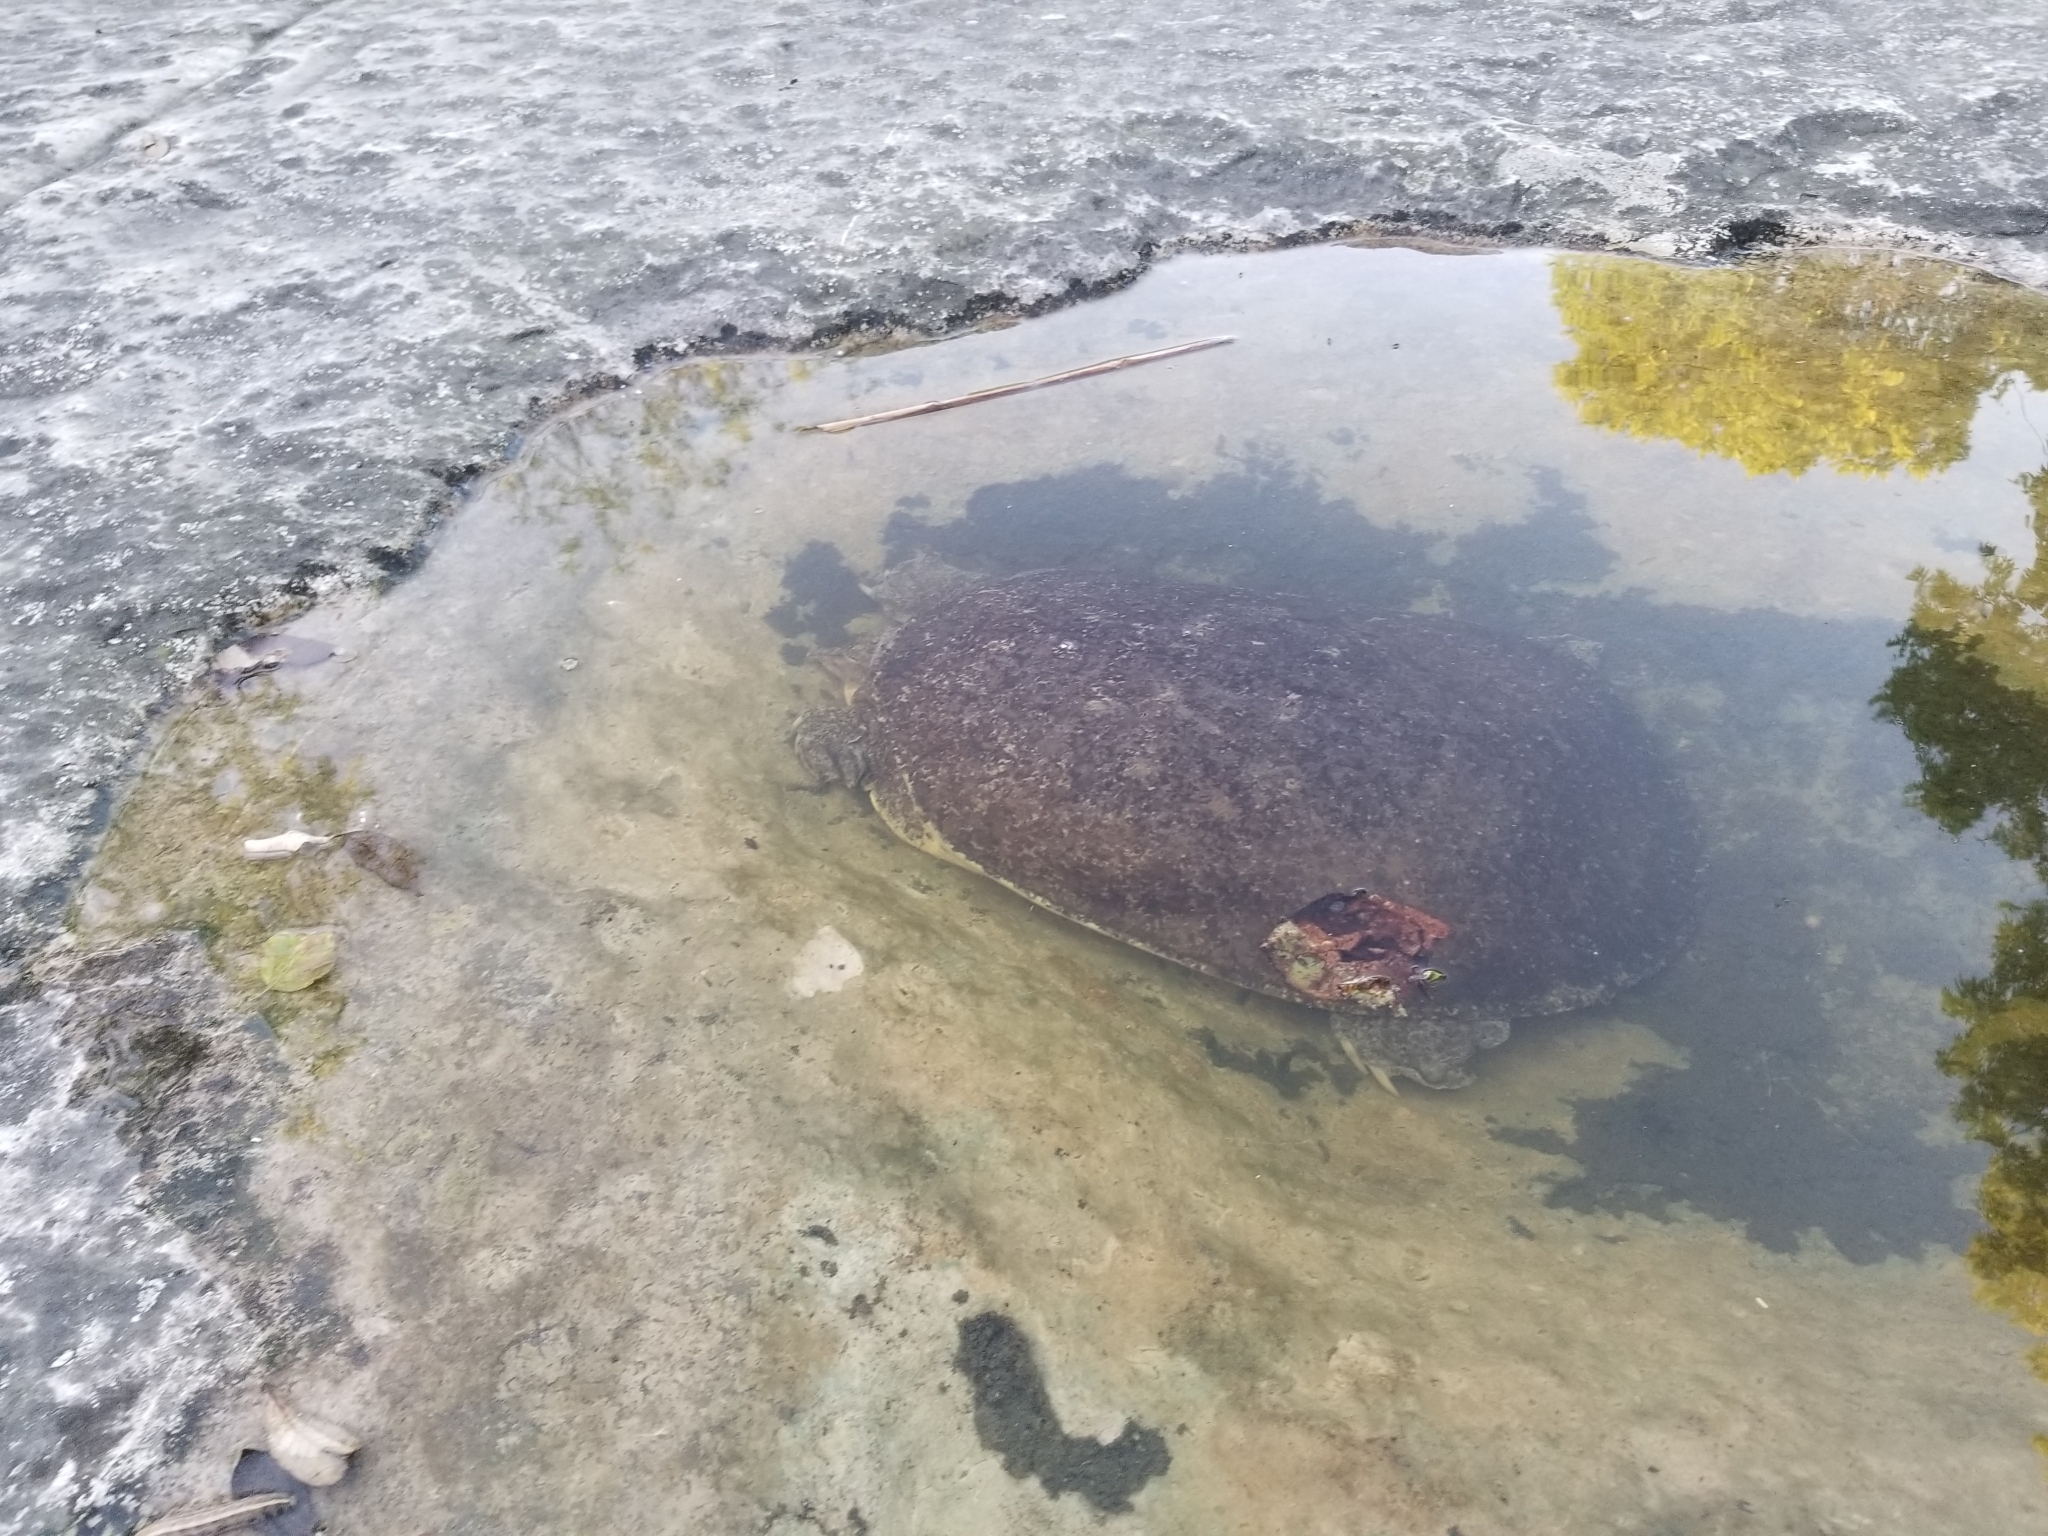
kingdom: Animalia
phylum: Chordata
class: Testudines
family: Trionychidae
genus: Apalone
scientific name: Apalone spinifera
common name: Spiny softshell turtle
